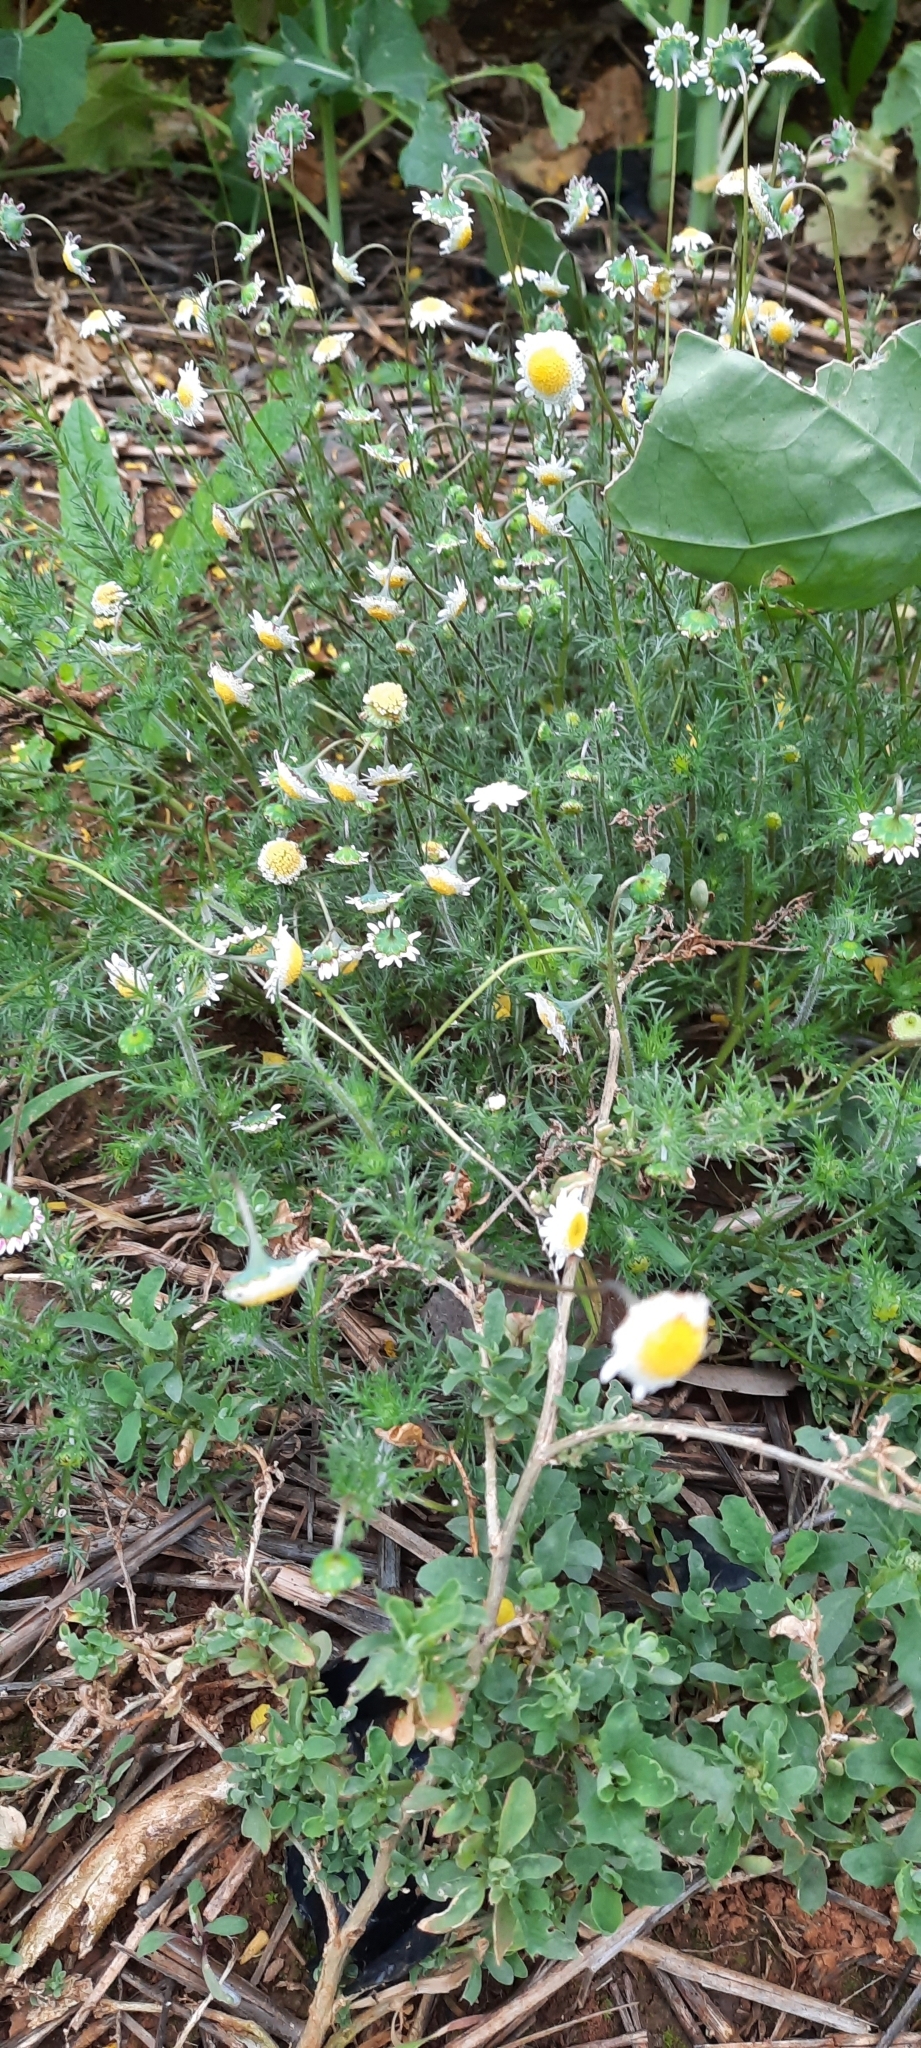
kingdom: Plantae
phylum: Tracheophyta
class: Magnoliopsida
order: Asterales
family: Asteraceae
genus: Cotula
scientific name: Cotula turbinata
